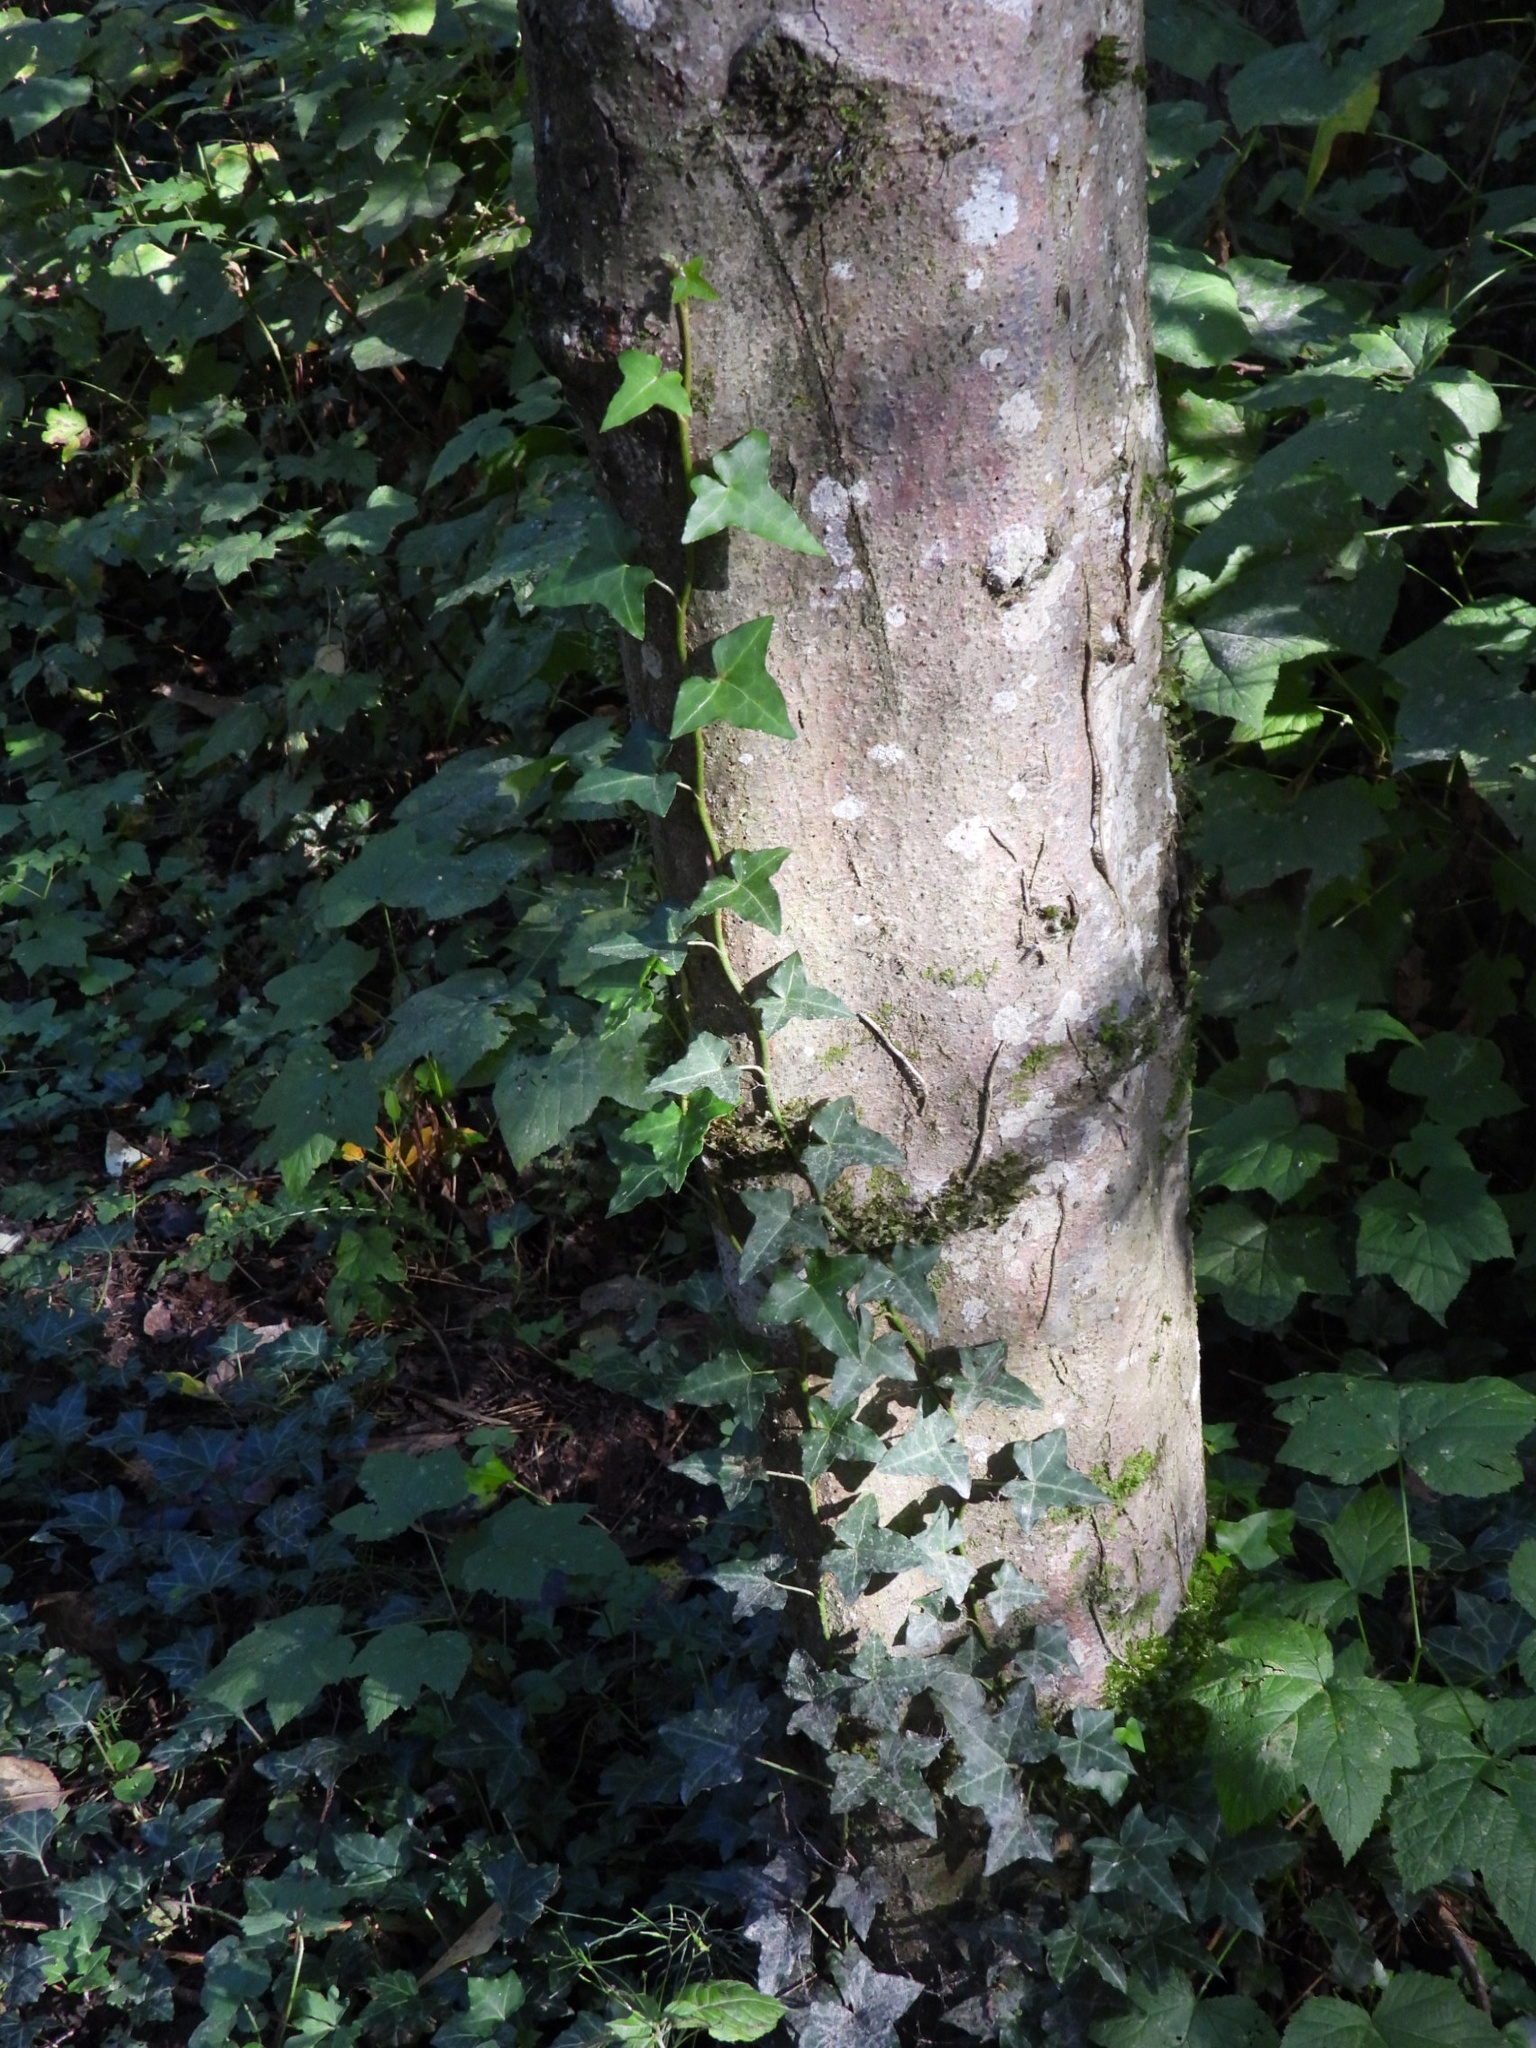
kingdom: Plantae
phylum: Tracheophyta
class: Magnoliopsida
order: Apiales
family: Araliaceae
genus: Hedera
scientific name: Hedera helix
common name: Ivy
